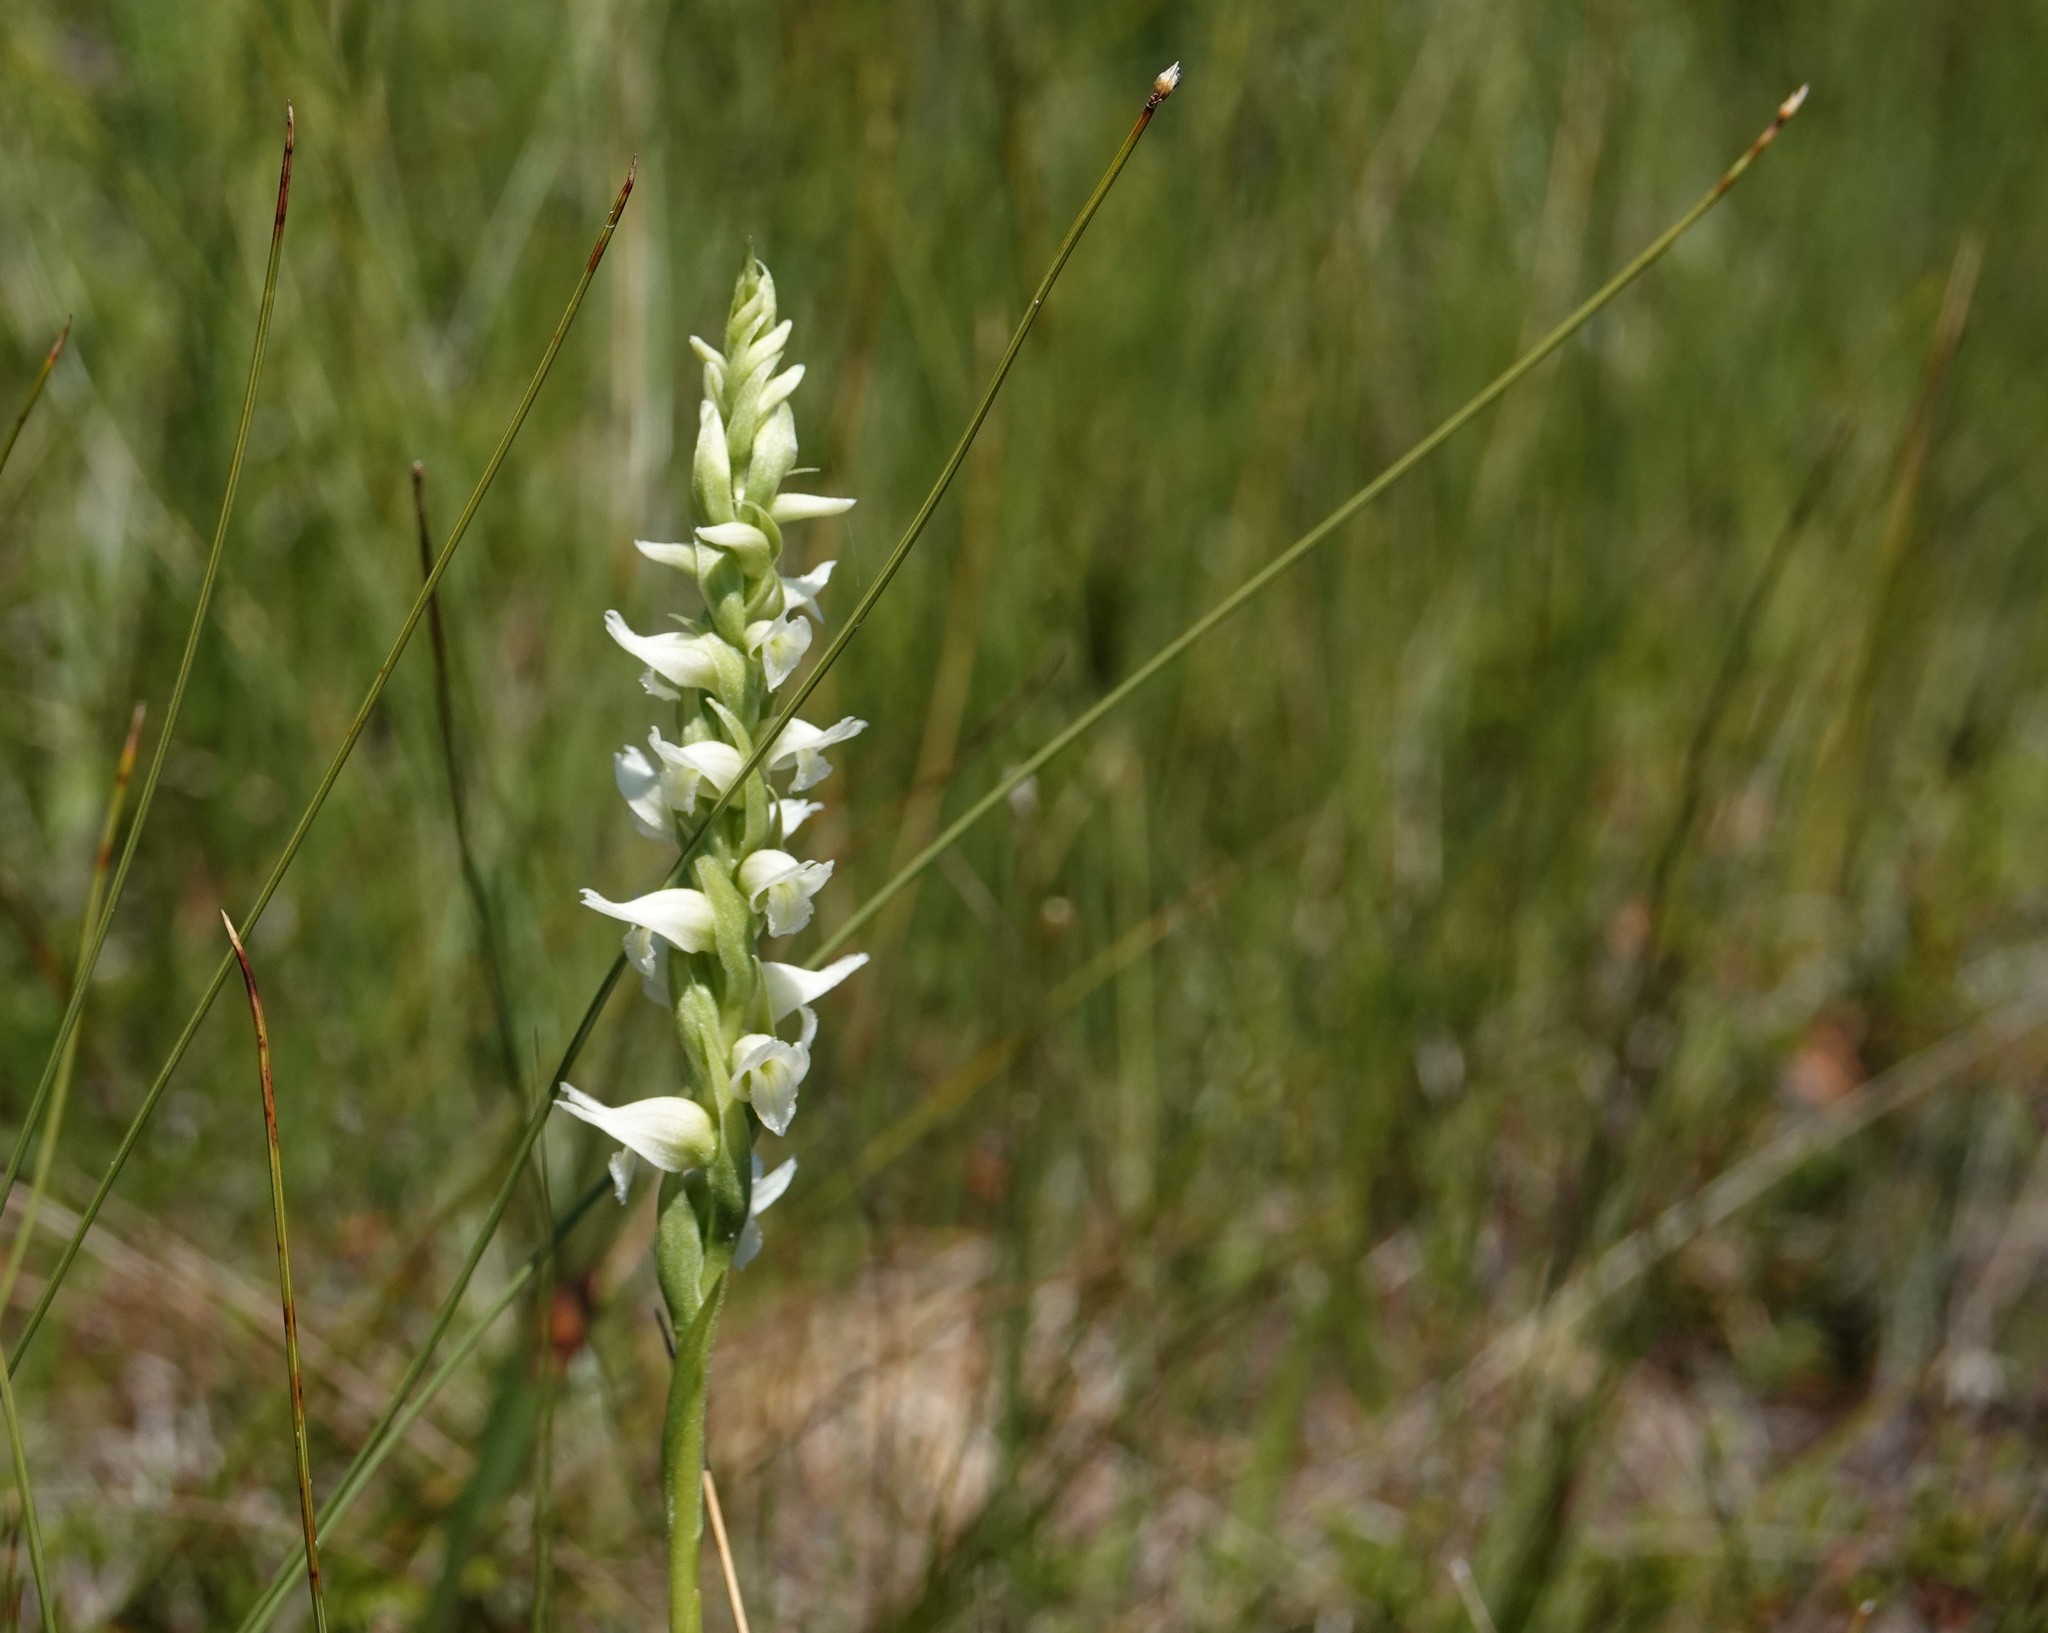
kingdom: Plantae
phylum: Tracheophyta
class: Liliopsida
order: Asparagales
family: Orchidaceae
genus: Spiranthes
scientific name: Spiranthes romanzoffiana
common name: Irish lady's-tresses
